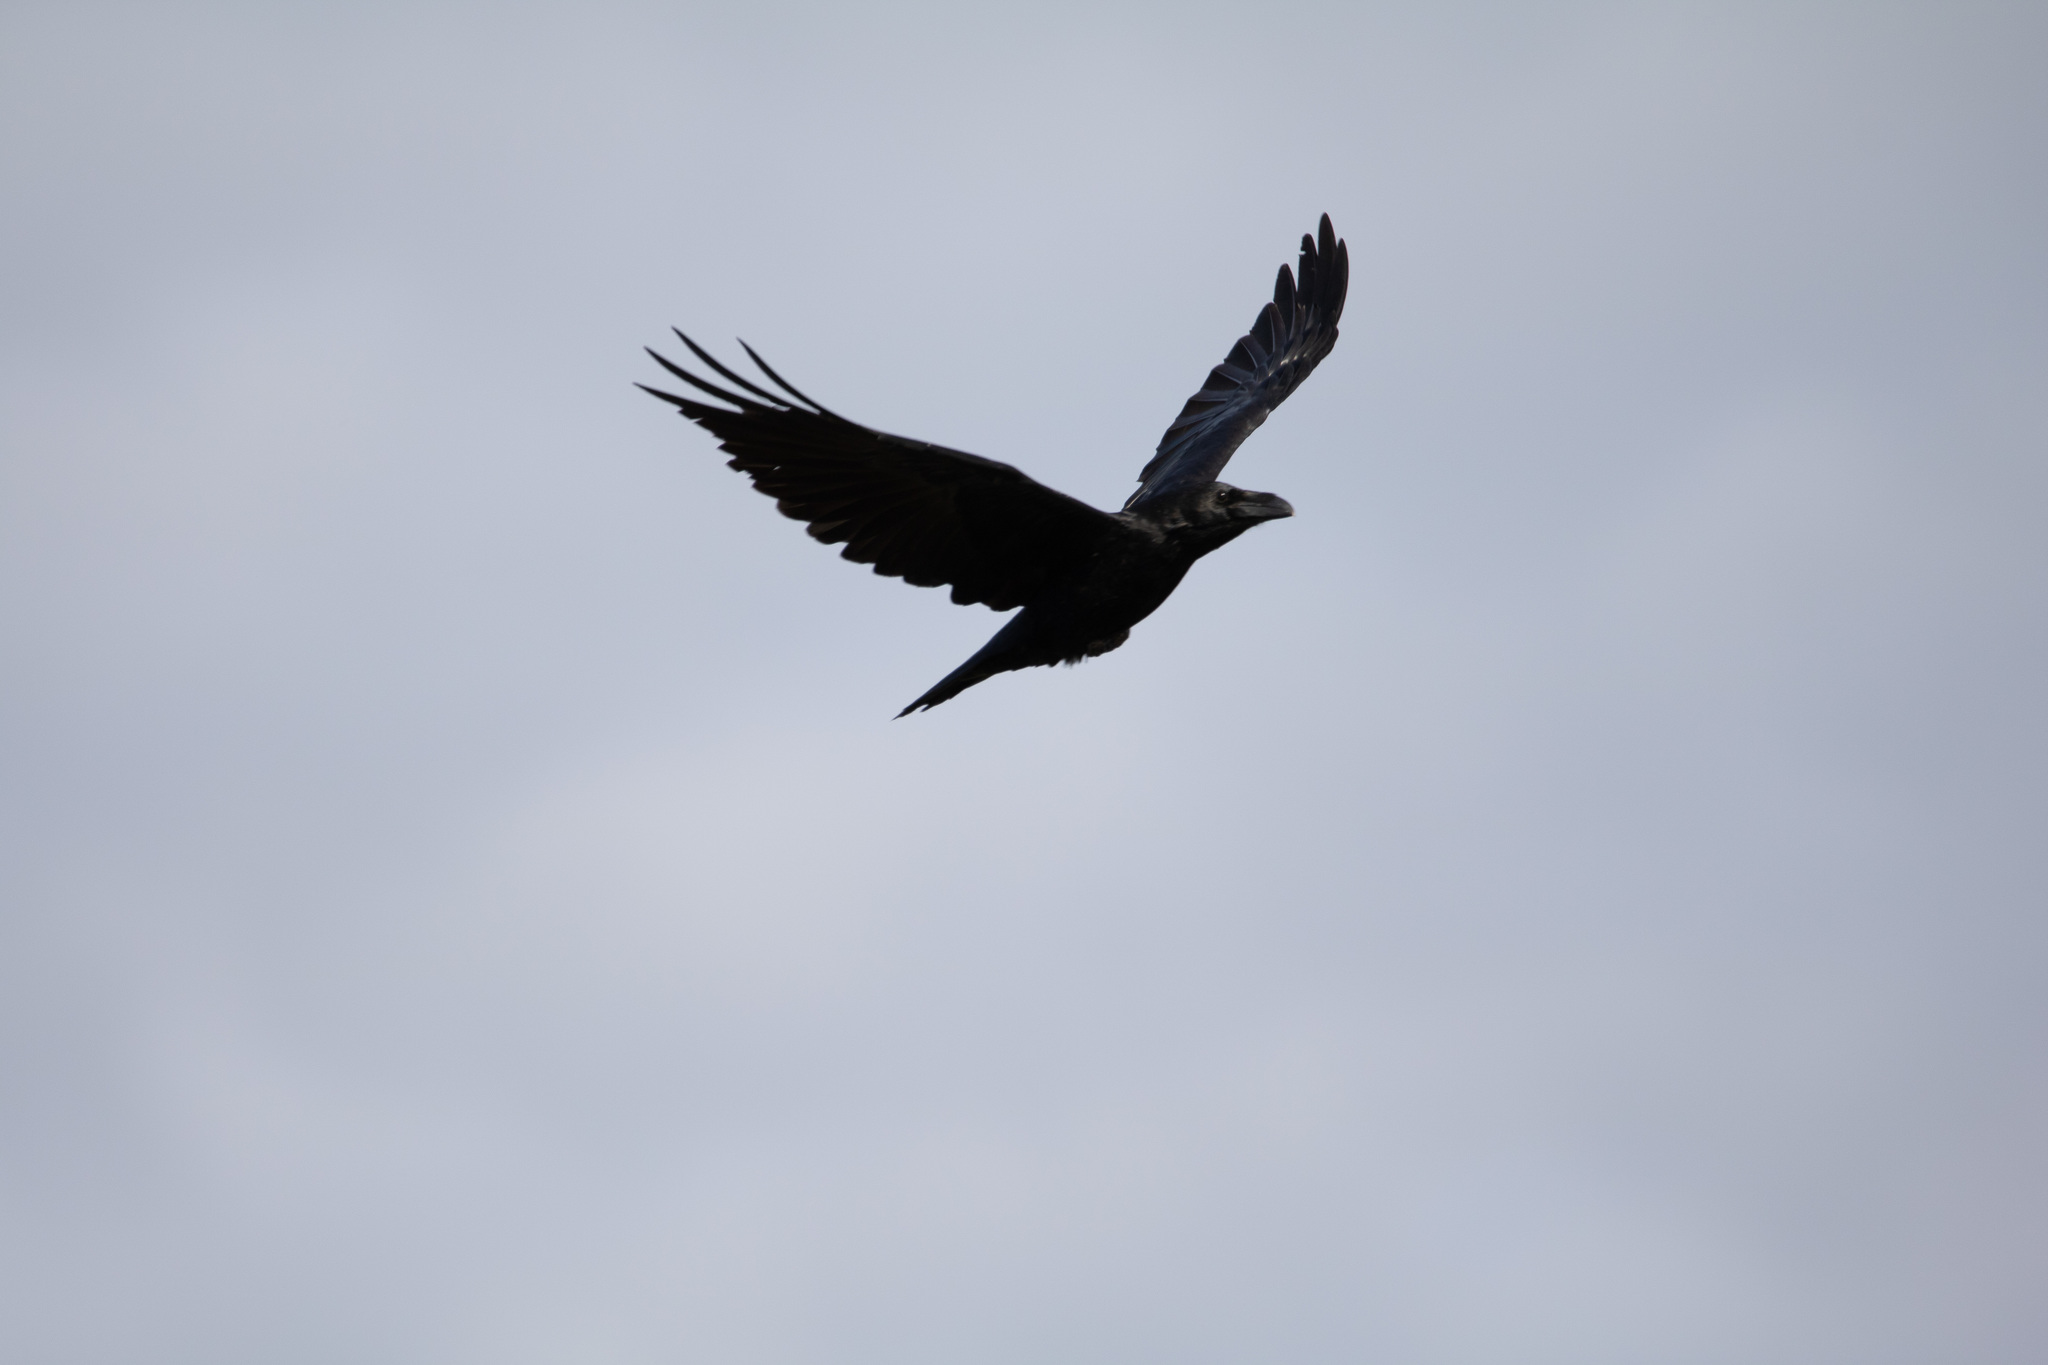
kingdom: Animalia
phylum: Chordata
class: Aves
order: Passeriformes
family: Corvidae
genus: Corvus
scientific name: Corvus corax
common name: Common raven
